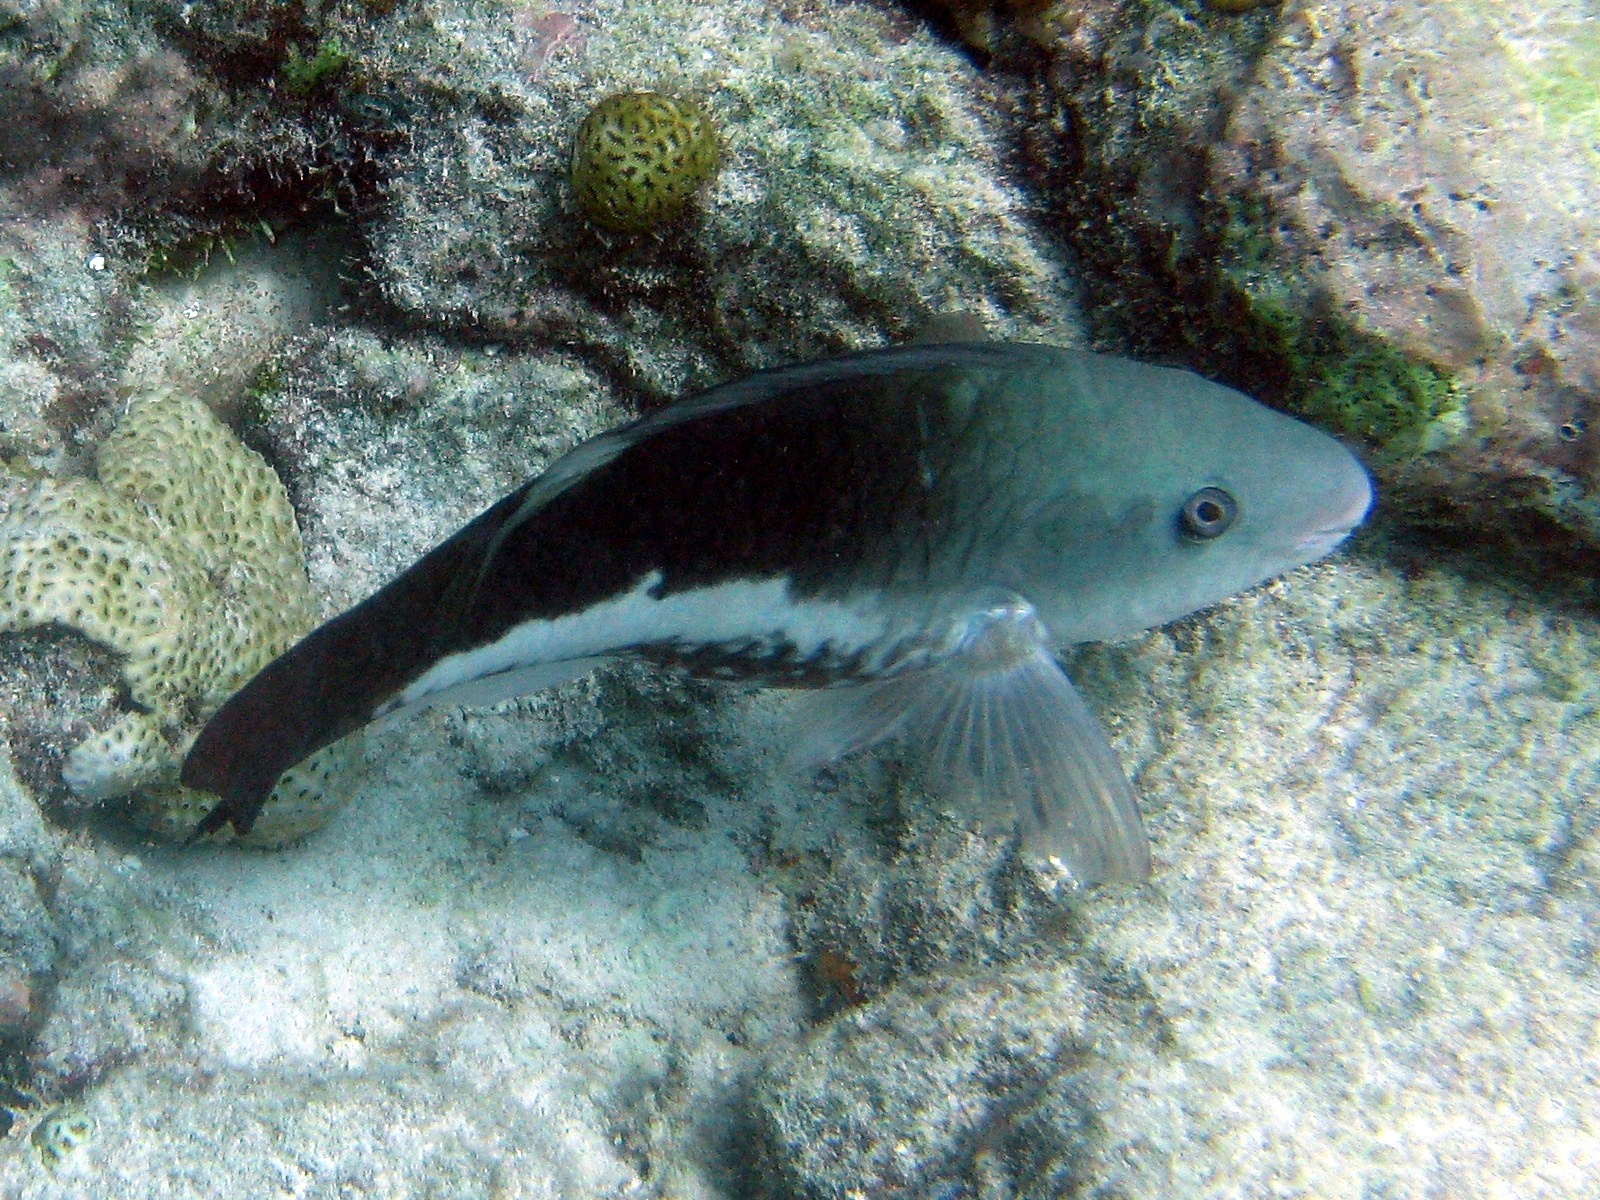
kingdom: Animalia
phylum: Chordata
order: Perciformes
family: Scaridae
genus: Scarus
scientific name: Scarus vetula
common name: Queen parrotfish
